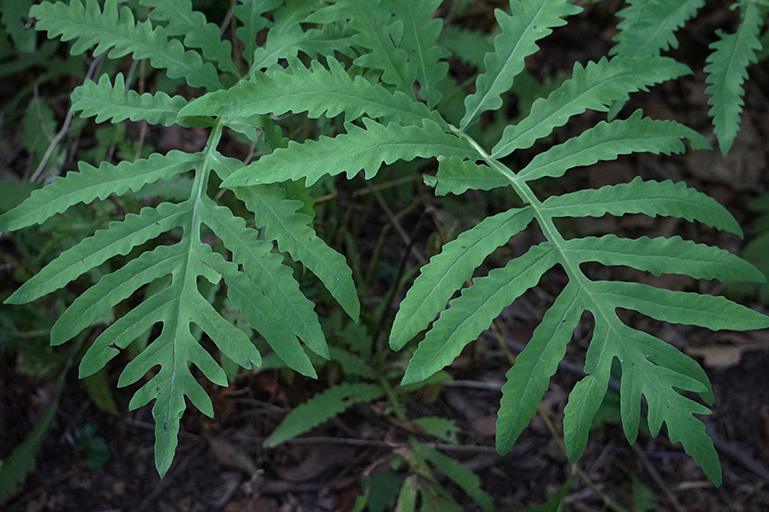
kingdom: Plantae
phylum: Tracheophyta
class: Polypodiopsida
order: Polypodiales
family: Onocleaceae
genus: Onoclea
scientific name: Onoclea sensibilis
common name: Sensitive fern
